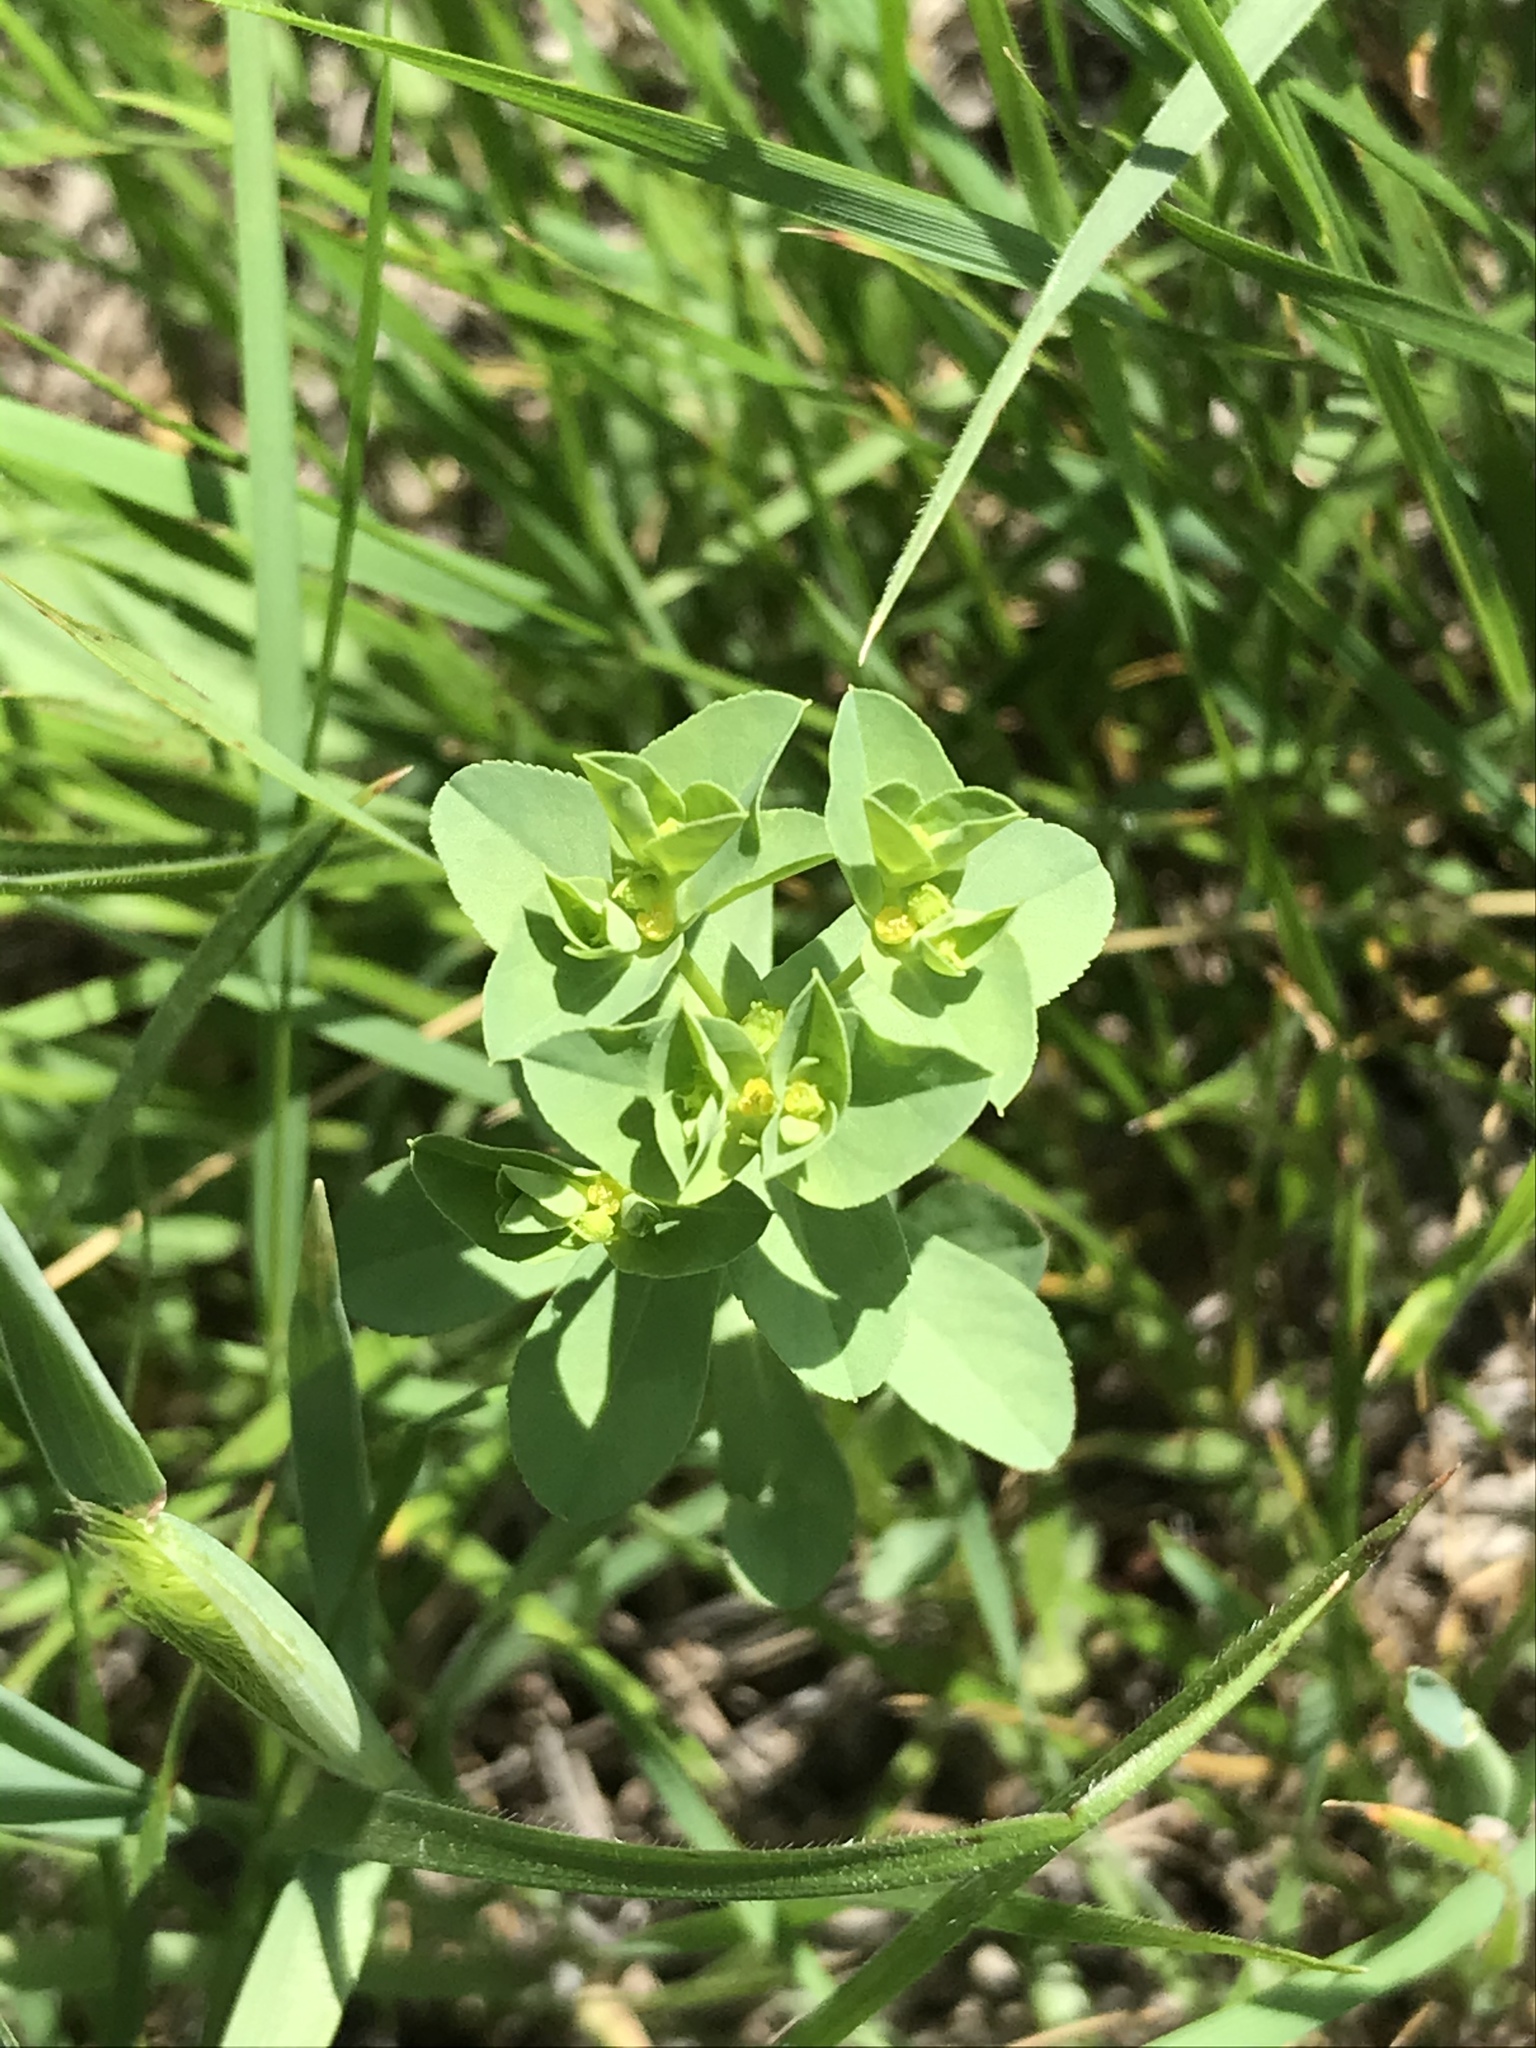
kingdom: Plantae
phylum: Tracheophyta
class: Magnoliopsida
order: Malpighiales
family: Euphorbiaceae
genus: Euphorbia
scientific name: Euphorbia spathulata
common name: Blunt spurge
